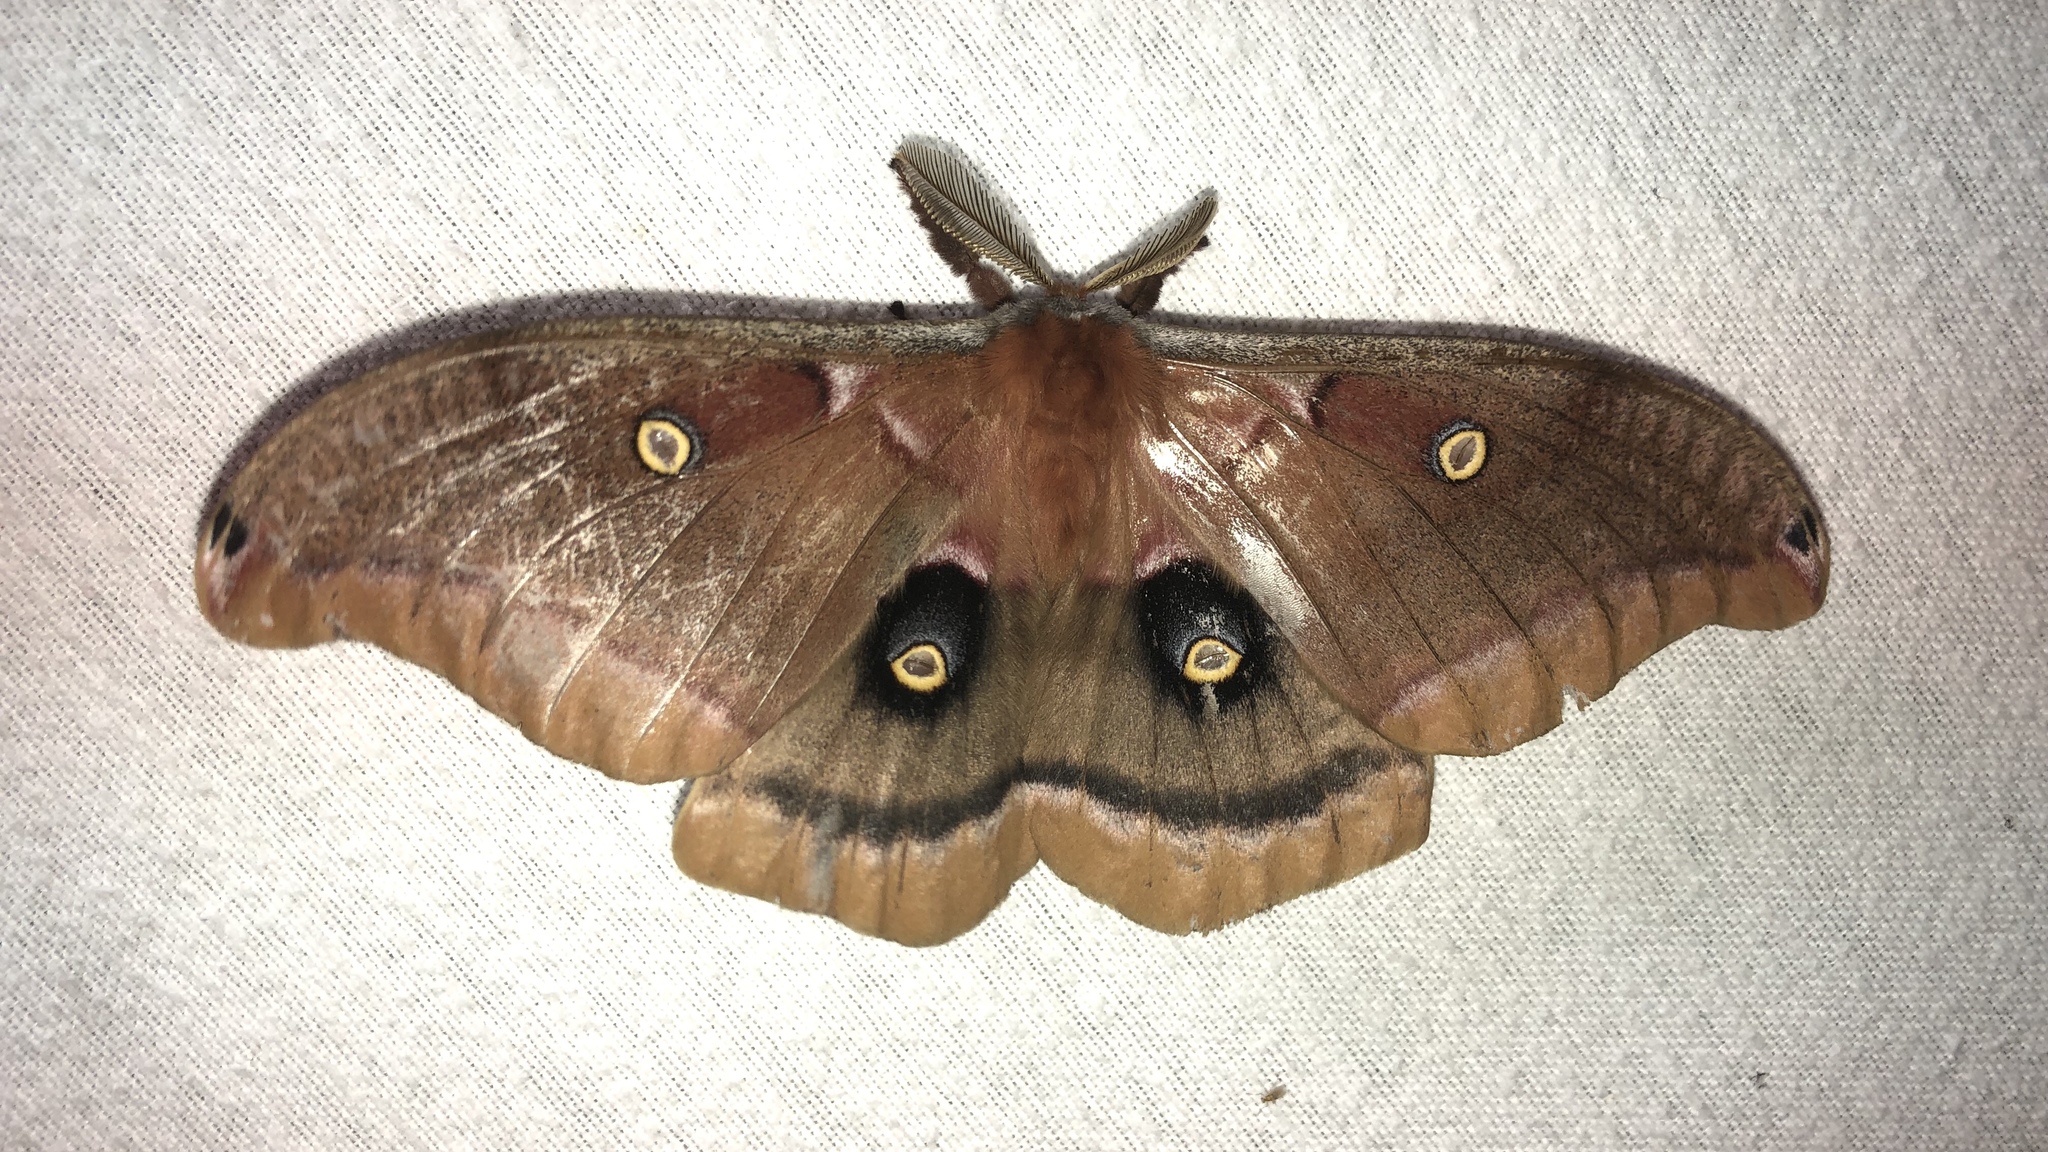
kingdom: Animalia
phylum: Arthropoda
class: Insecta
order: Lepidoptera
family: Saturniidae
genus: Antheraea
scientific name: Antheraea polyphemus
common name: Polyphemus moth
